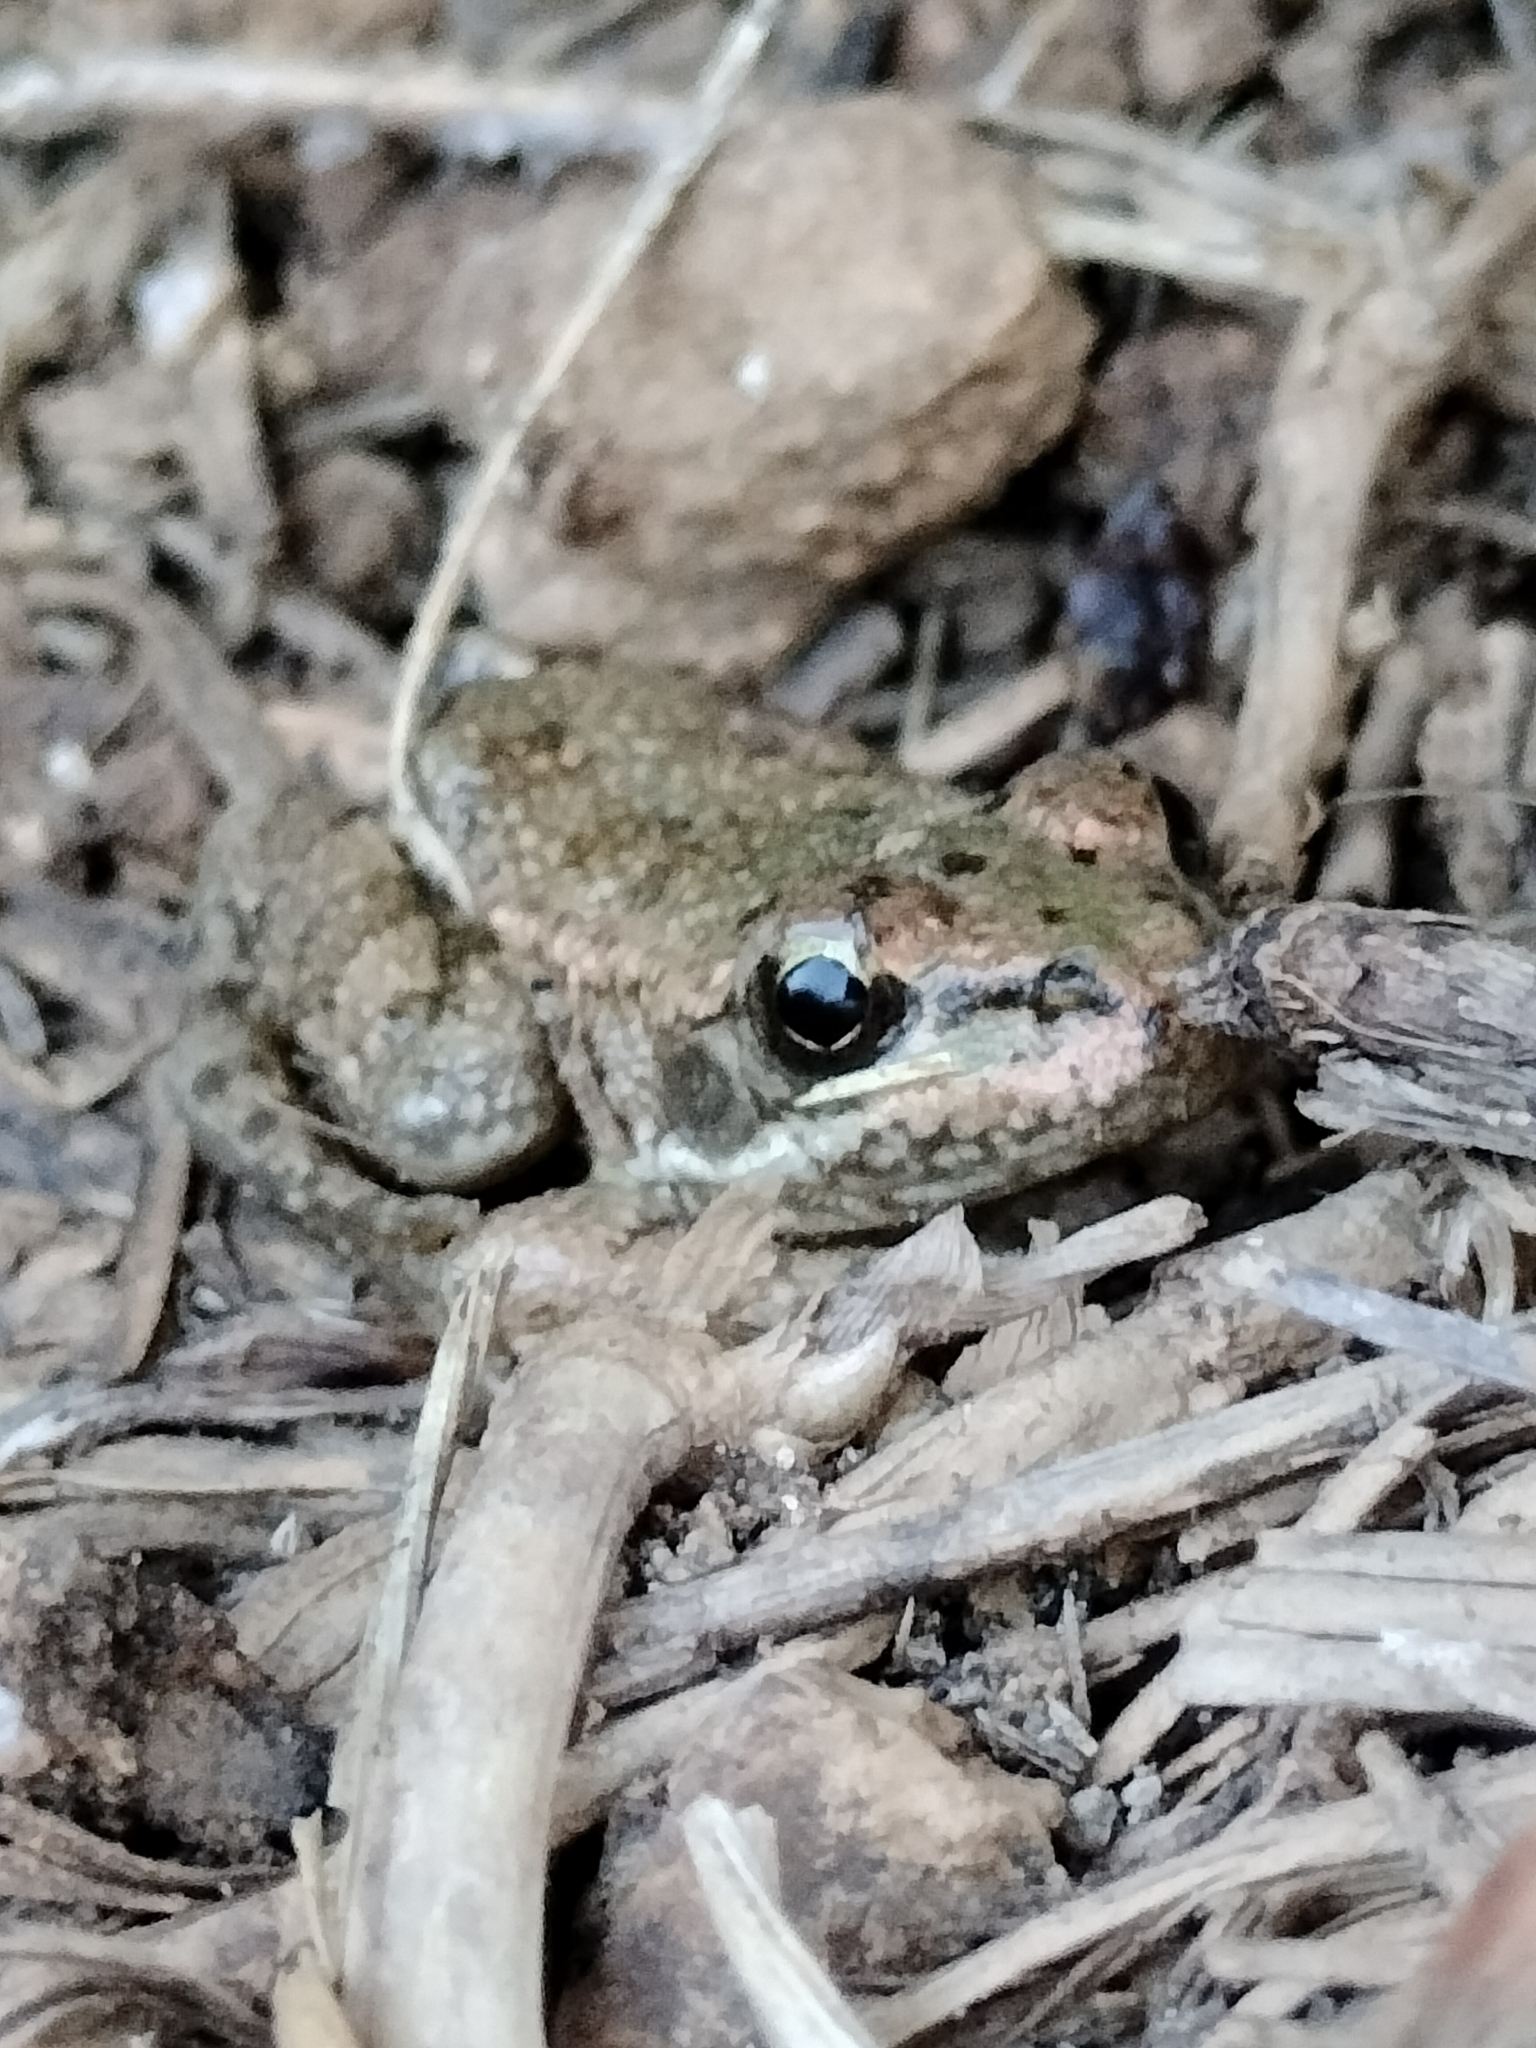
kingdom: Animalia
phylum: Chordata
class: Amphibia
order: Anura
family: Ranidae
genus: Pelophylax
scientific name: Pelophylax perezi
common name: Perez's frog
